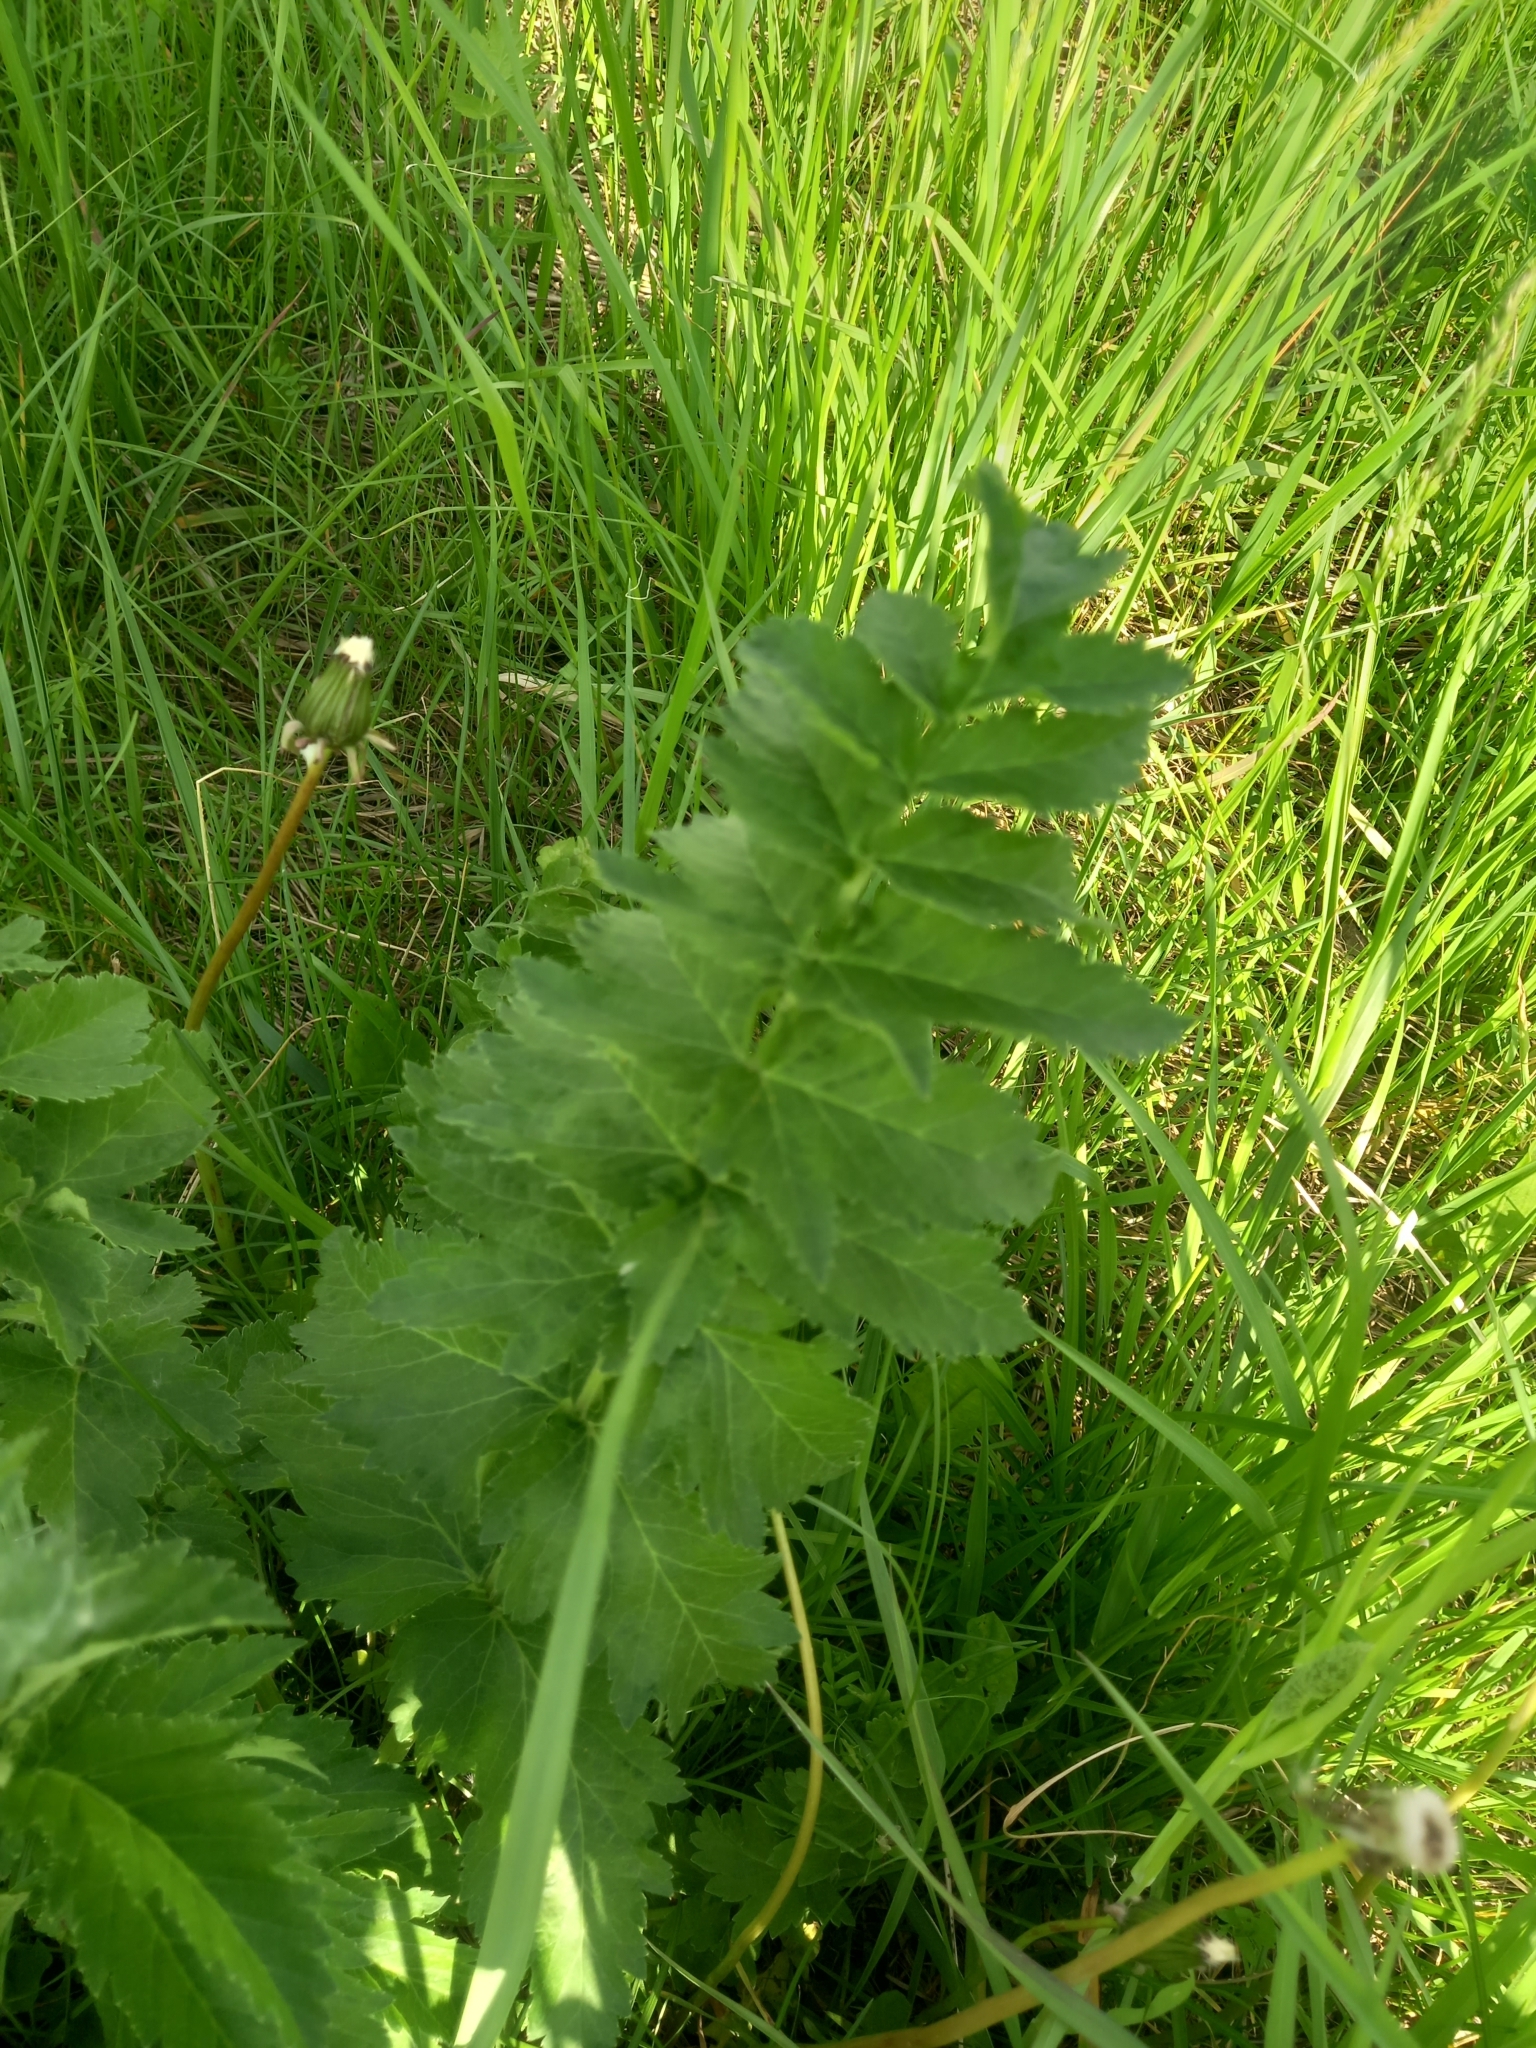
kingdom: Plantae
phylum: Tracheophyta
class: Magnoliopsida
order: Apiales
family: Apiaceae
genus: Pastinaca
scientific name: Pastinaca sativa
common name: Wild parsnip
